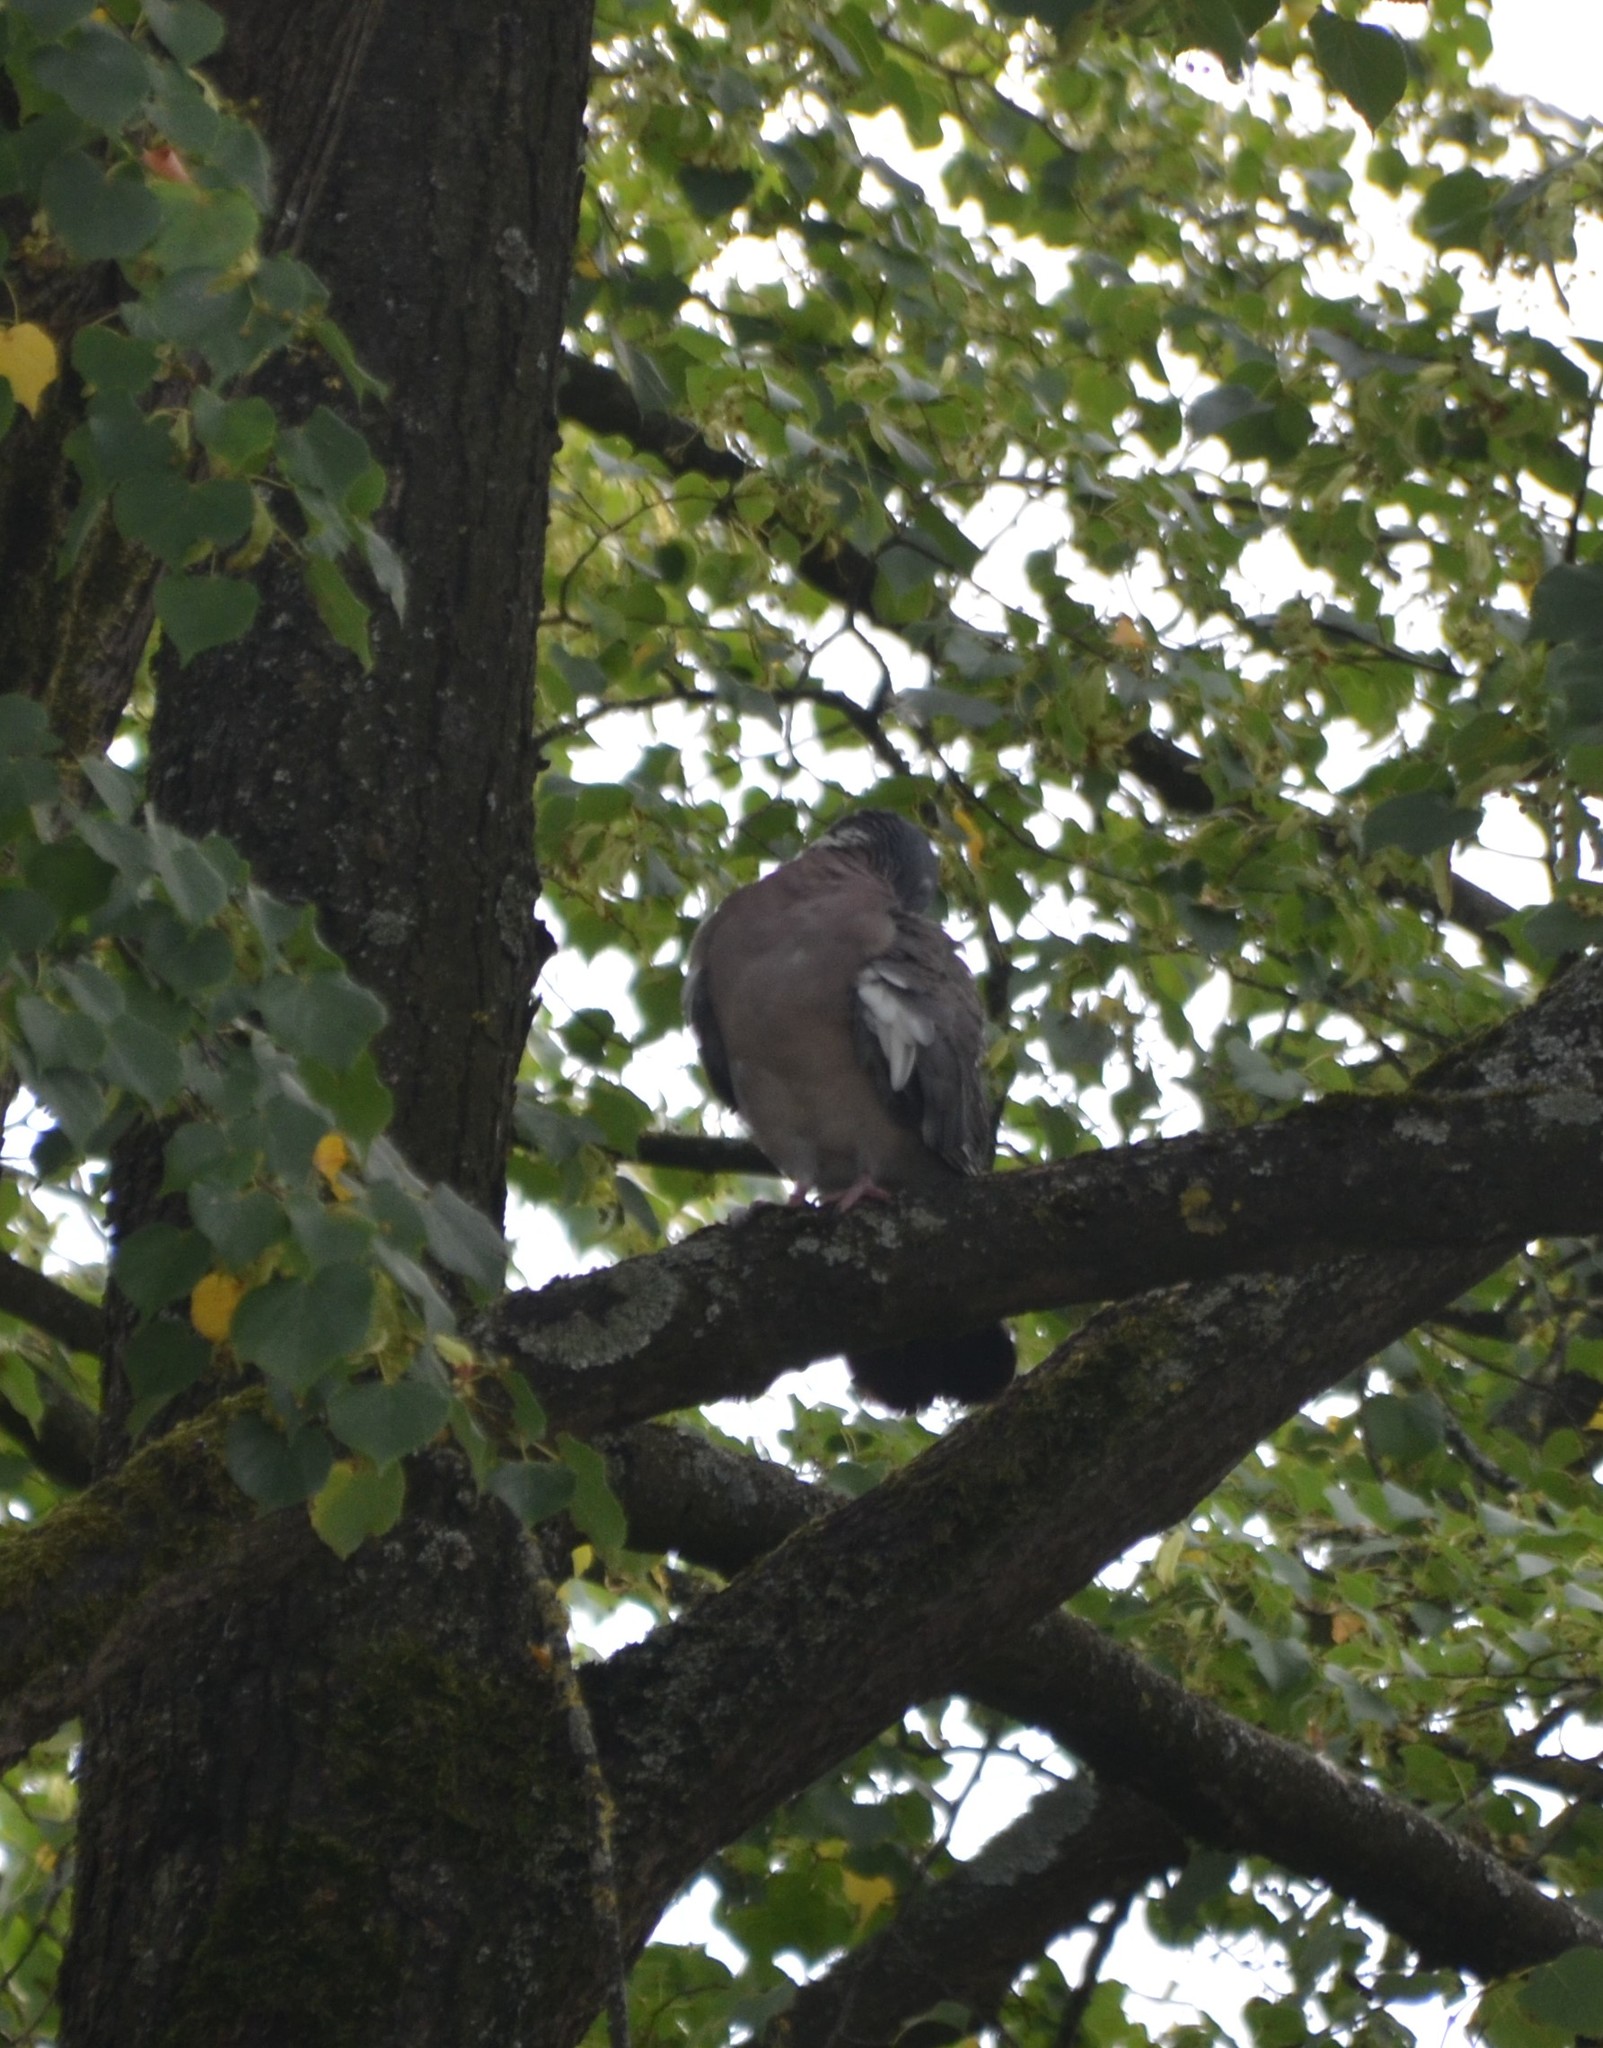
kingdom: Animalia
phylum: Chordata
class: Aves
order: Columbiformes
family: Columbidae
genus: Columba
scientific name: Columba palumbus
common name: Common wood pigeon
